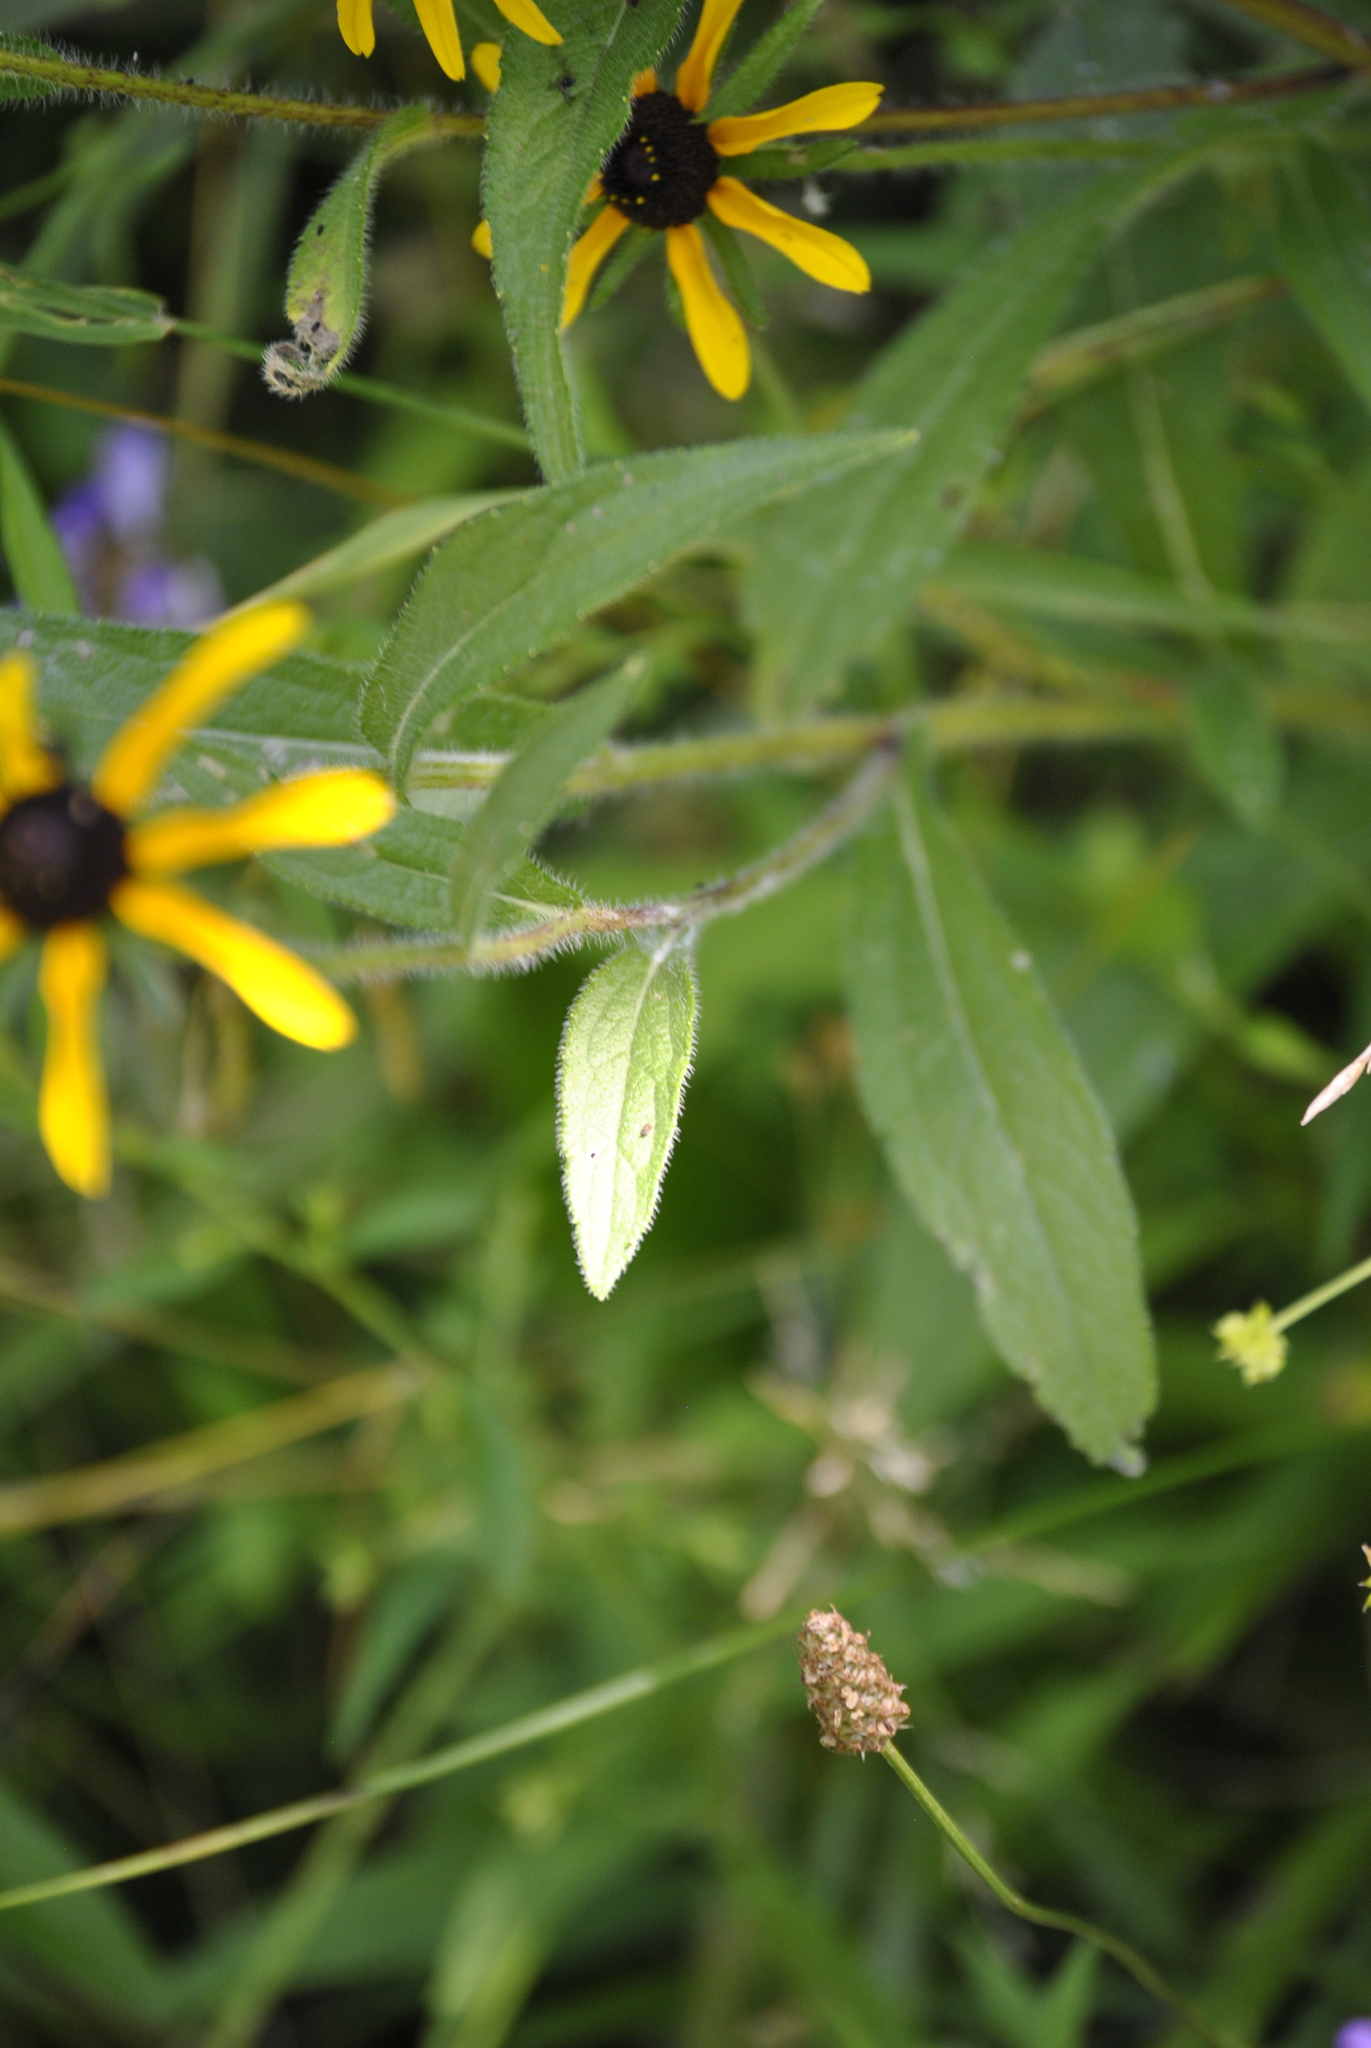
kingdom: Plantae
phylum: Tracheophyta
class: Magnoliopsida
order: Asterales
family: Asteraceae
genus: Rudbeckia
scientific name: Rudbeckia hirta
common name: Black-eyed-susan
